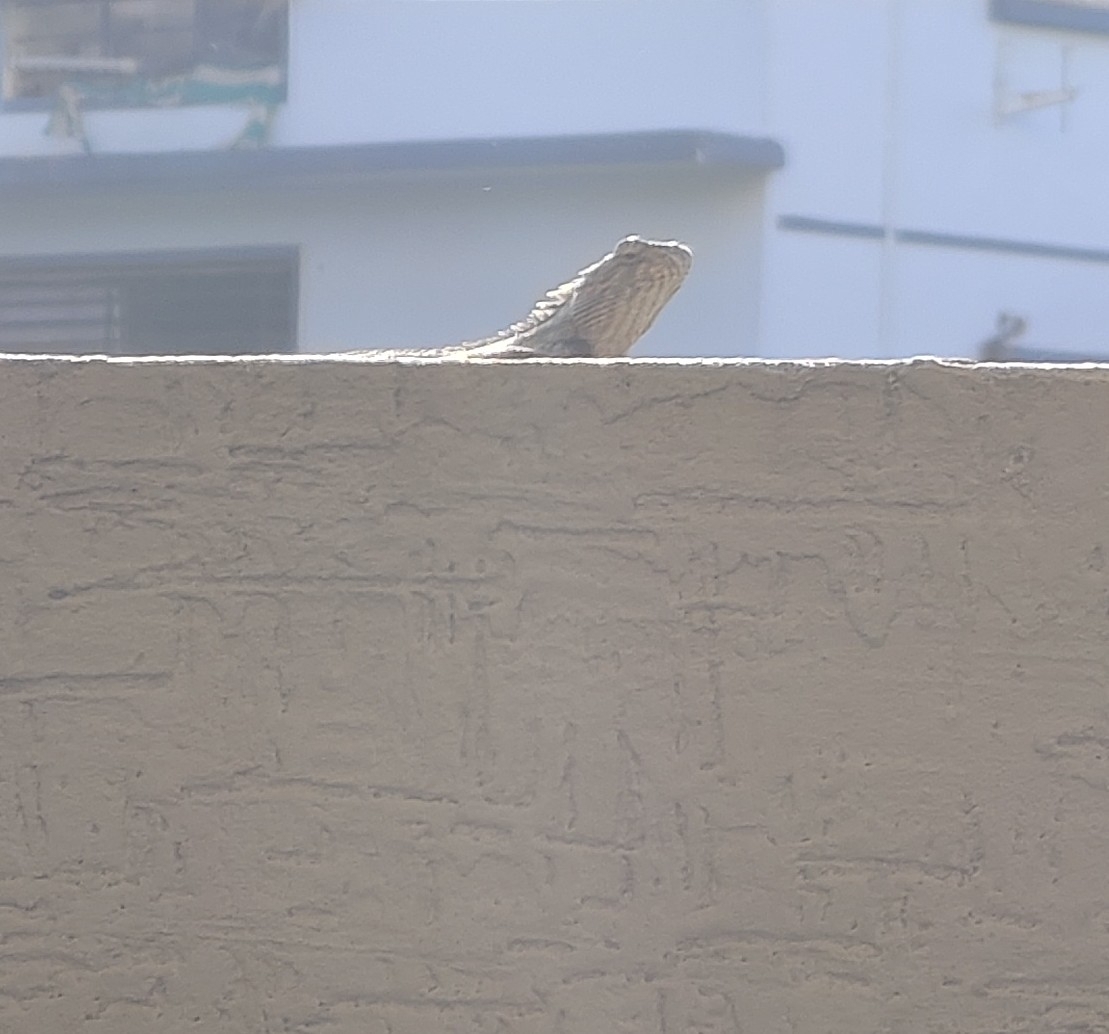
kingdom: Animalia
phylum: Chordata
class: Squamata
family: Agamidae
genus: Calotes
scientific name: Calotes versicolor
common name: Oriental garden lizard
